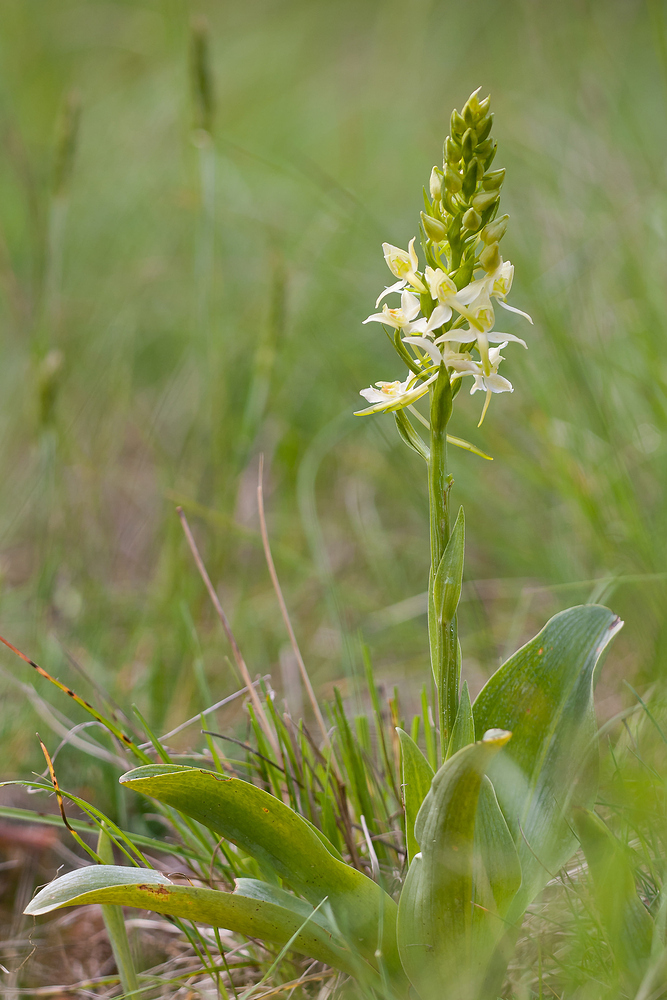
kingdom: Plantae
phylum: Tracheophyta
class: Liliopsida
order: Asparagales
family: Orchidaceae
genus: Platanthera
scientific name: Platanthera chlorantha
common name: Greater butterfly-orchid
